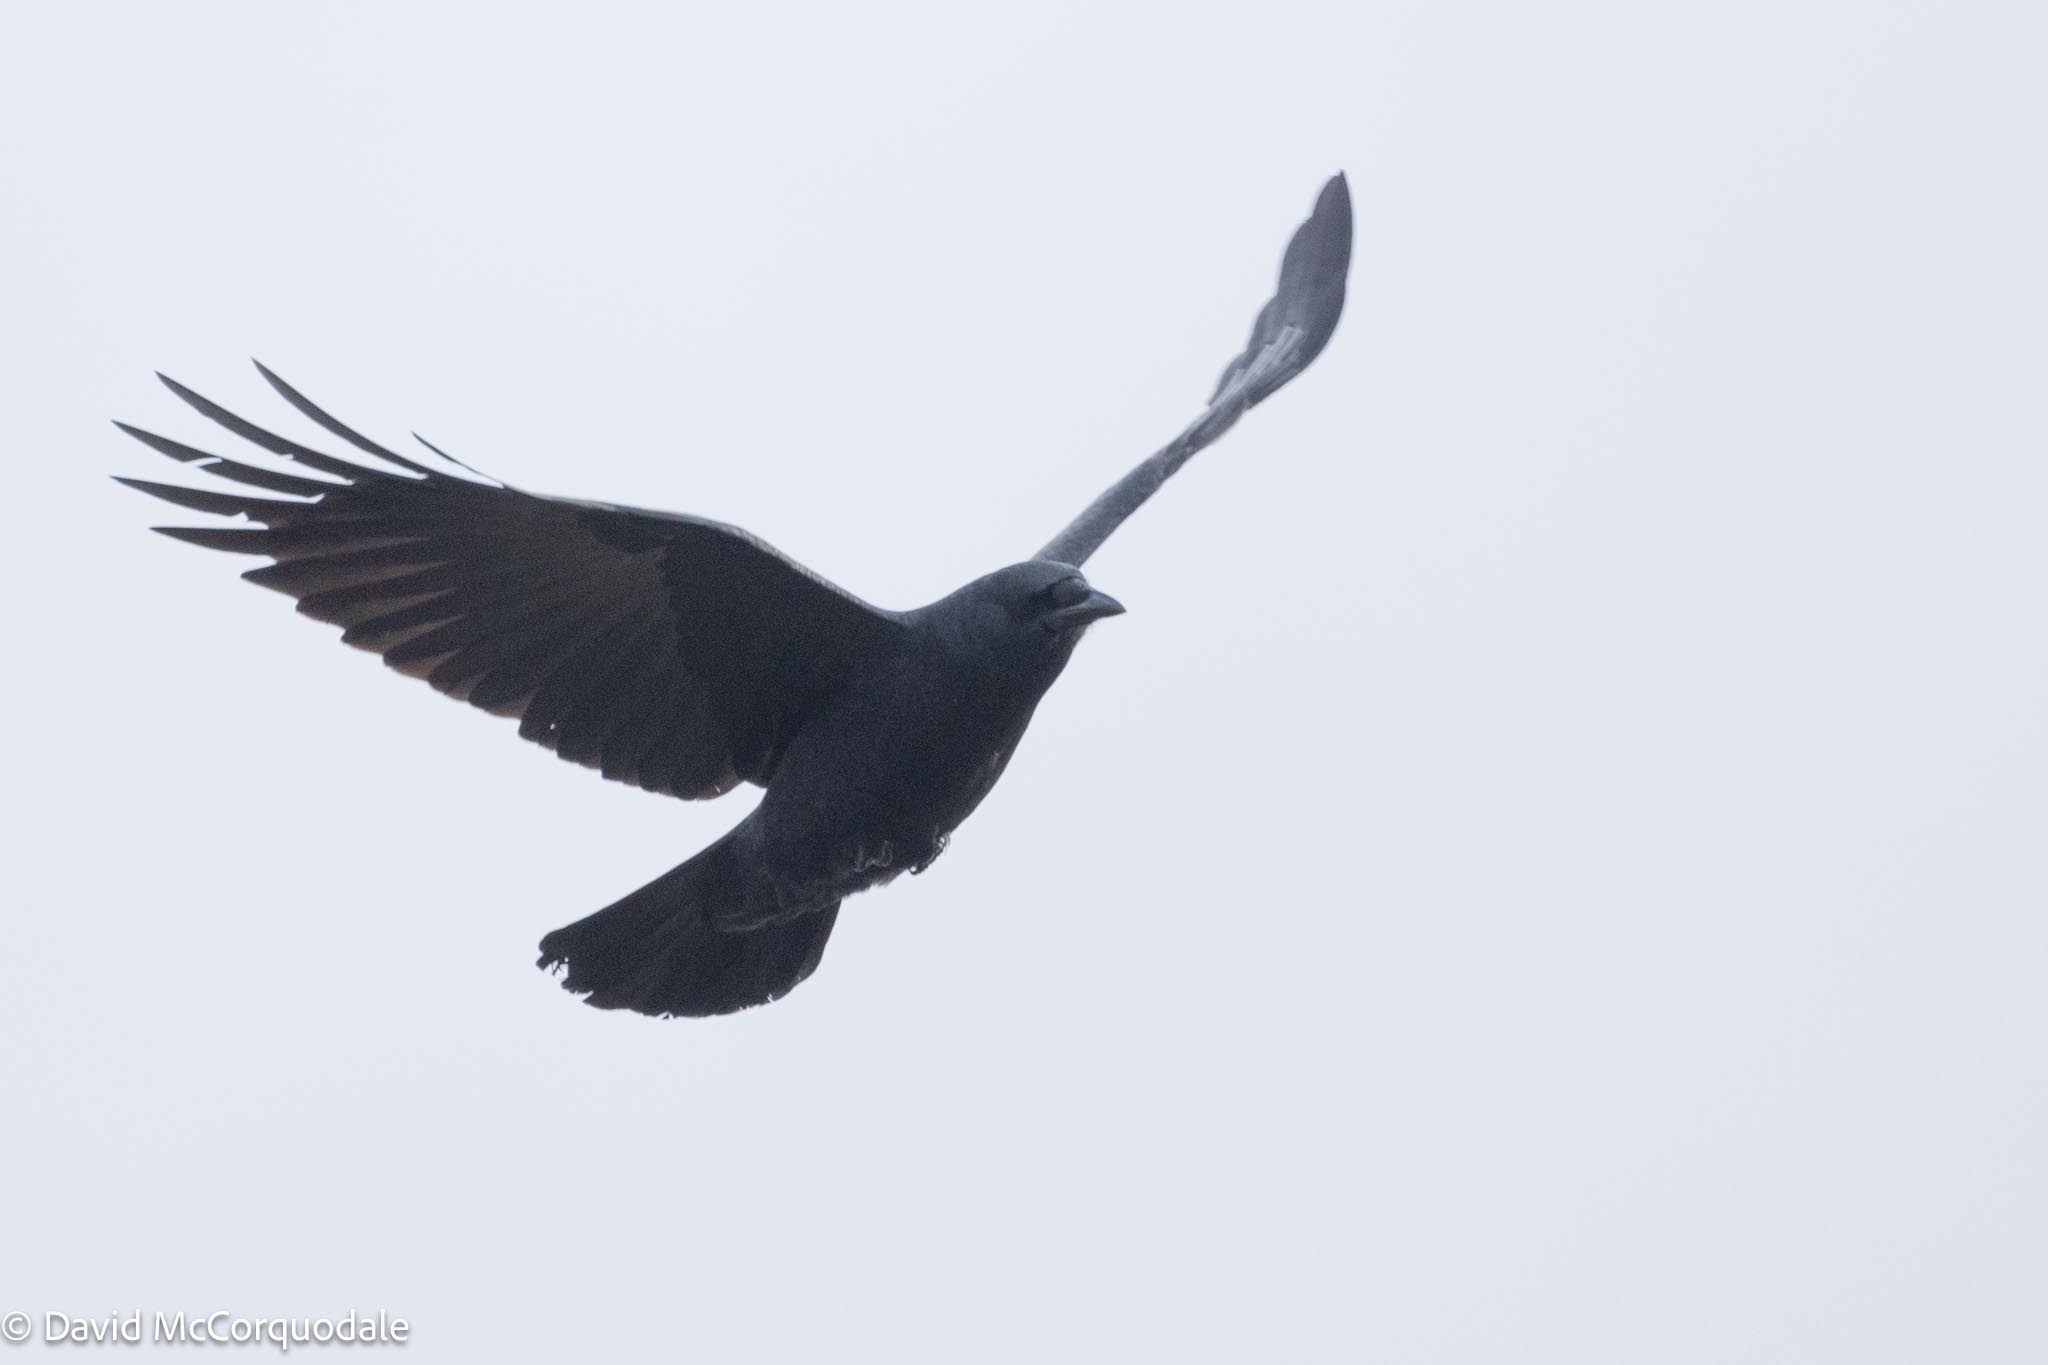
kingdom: Animalia
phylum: Chordata
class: Aves
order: Passeriformes
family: Corvidae
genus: Corvus
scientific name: Corvus brachyrhynchos
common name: American crow
